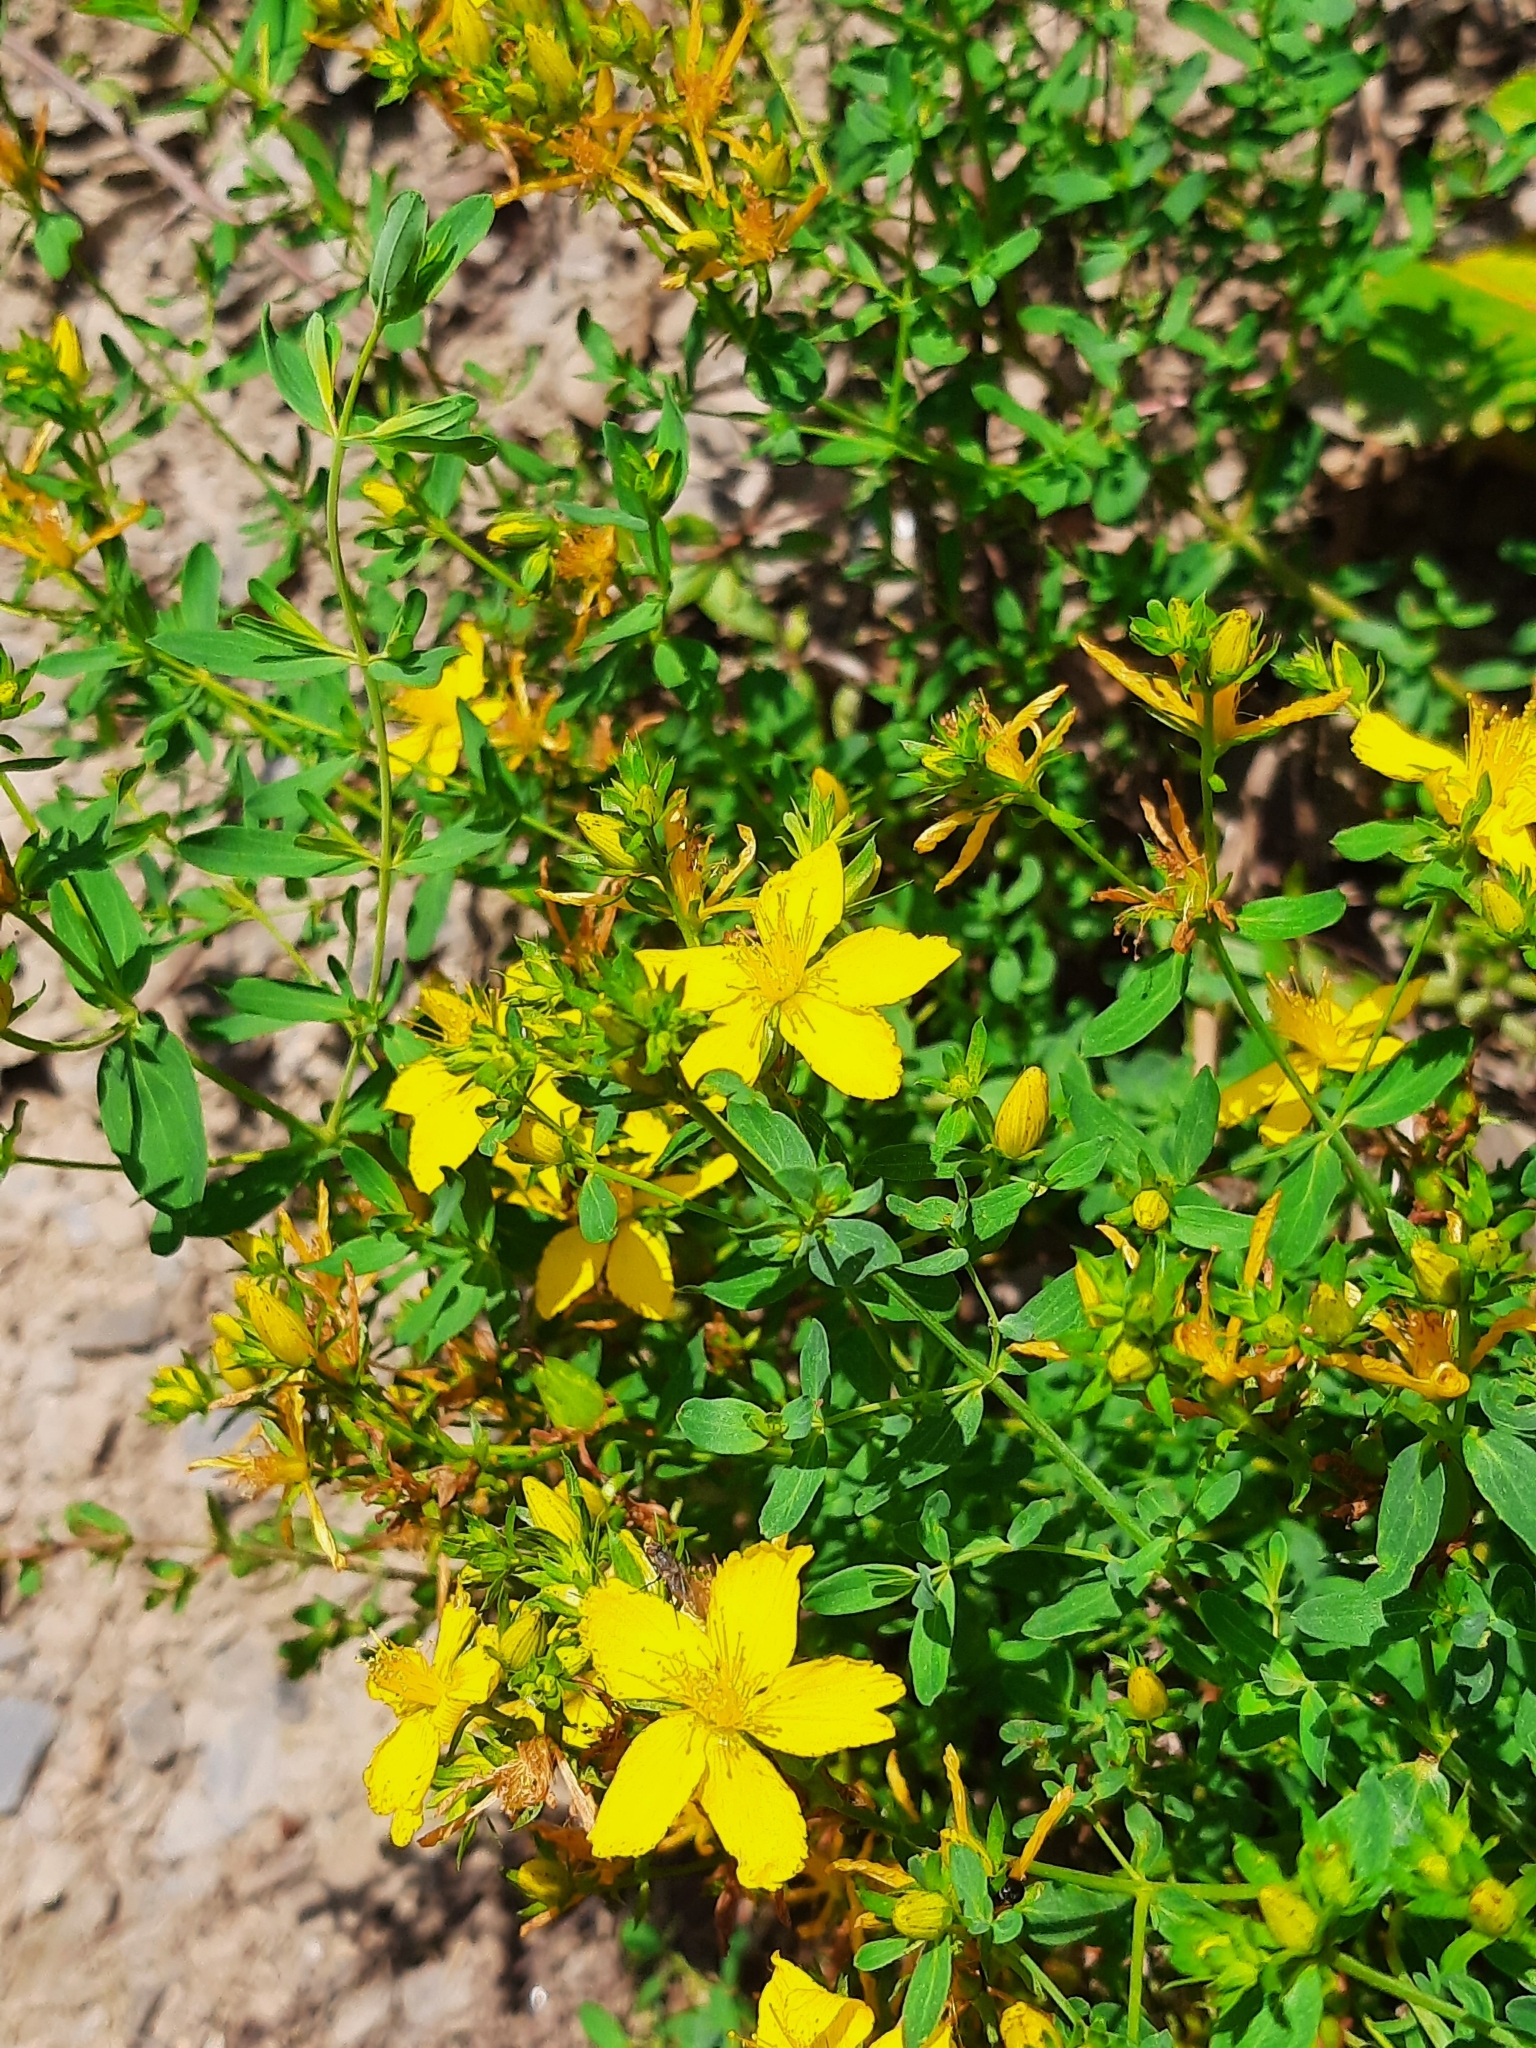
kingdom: Plantae
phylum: Tracheophyta
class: Magnoliopsida
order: Malpighiales
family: Hypericaceae
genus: Hypericum
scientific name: Hypericum perforatum
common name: Common st. johnswort
